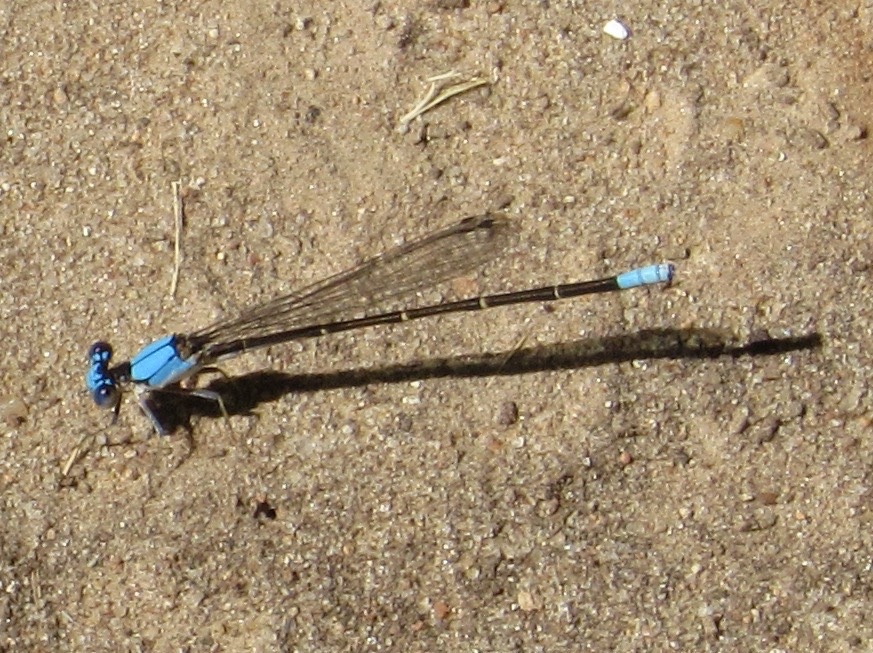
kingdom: Animalia
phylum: Arthropoda
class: Insecta
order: Odonata
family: Coenagrionidae
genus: Argia
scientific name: Argia apicalis
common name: Blue-fronted dancer
